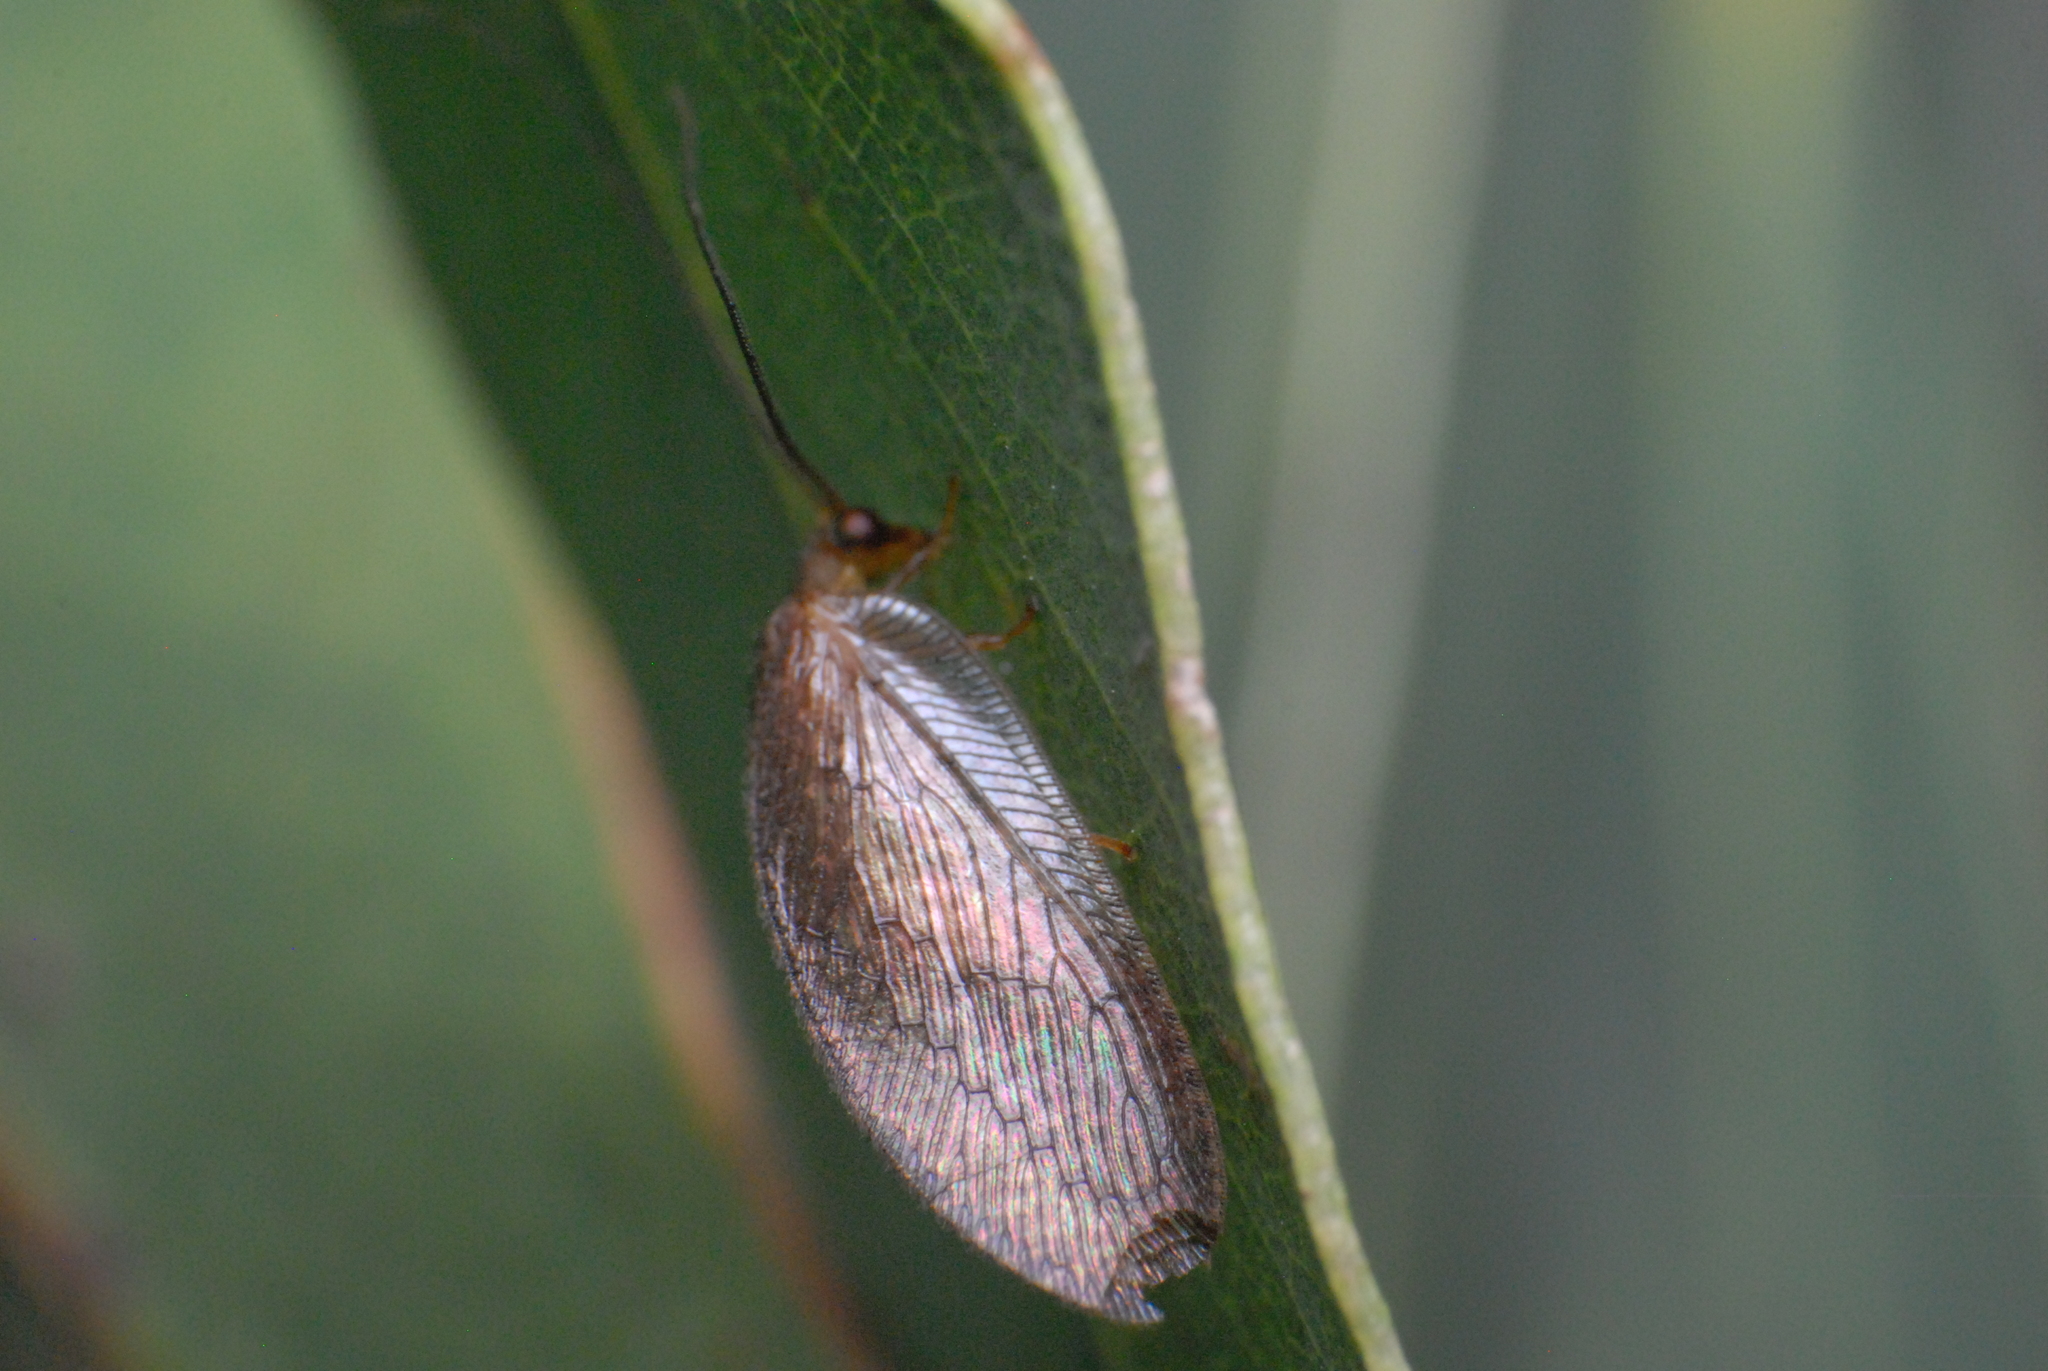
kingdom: Animalia
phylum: Arthropoda
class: Insecta
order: Neuroptera
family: Hemerobiidae
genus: Psychobiella
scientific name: Psychobiella sordida
